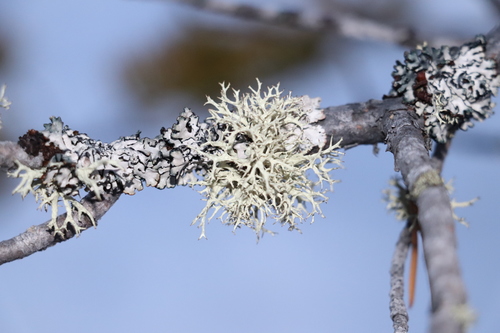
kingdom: Fungi
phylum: Ascomycota
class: Lecanoromycetes
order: Lecanorales
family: Parmeliaceae
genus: Evernia
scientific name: Evernia mesomorpha
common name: Boreal oak moss lichen
